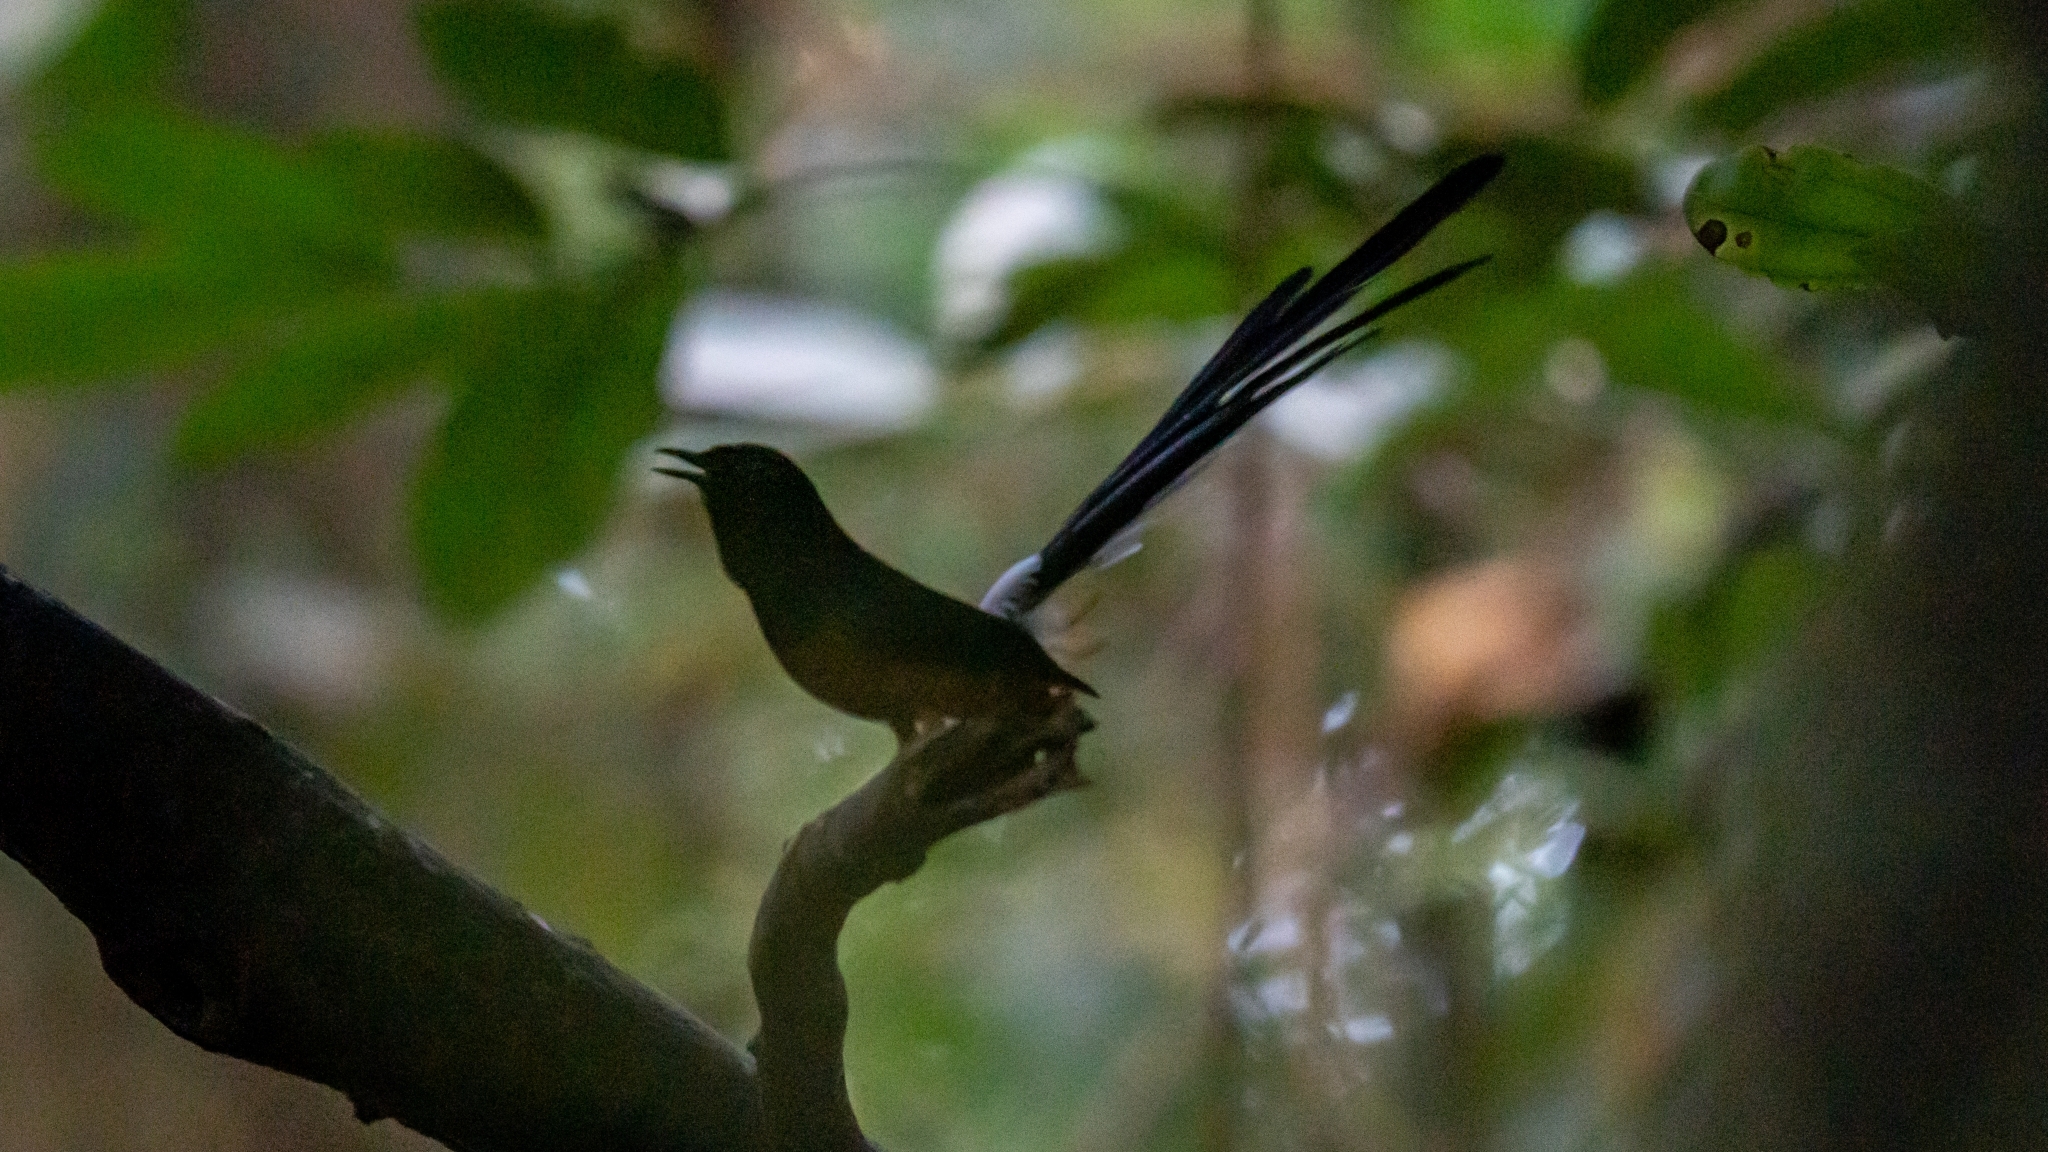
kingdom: Animalia
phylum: Chordata
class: Aves
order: Passeriformes
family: Muscicapidae
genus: Copsychus
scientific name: Copsychus malabaricus
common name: White-rumped shama
